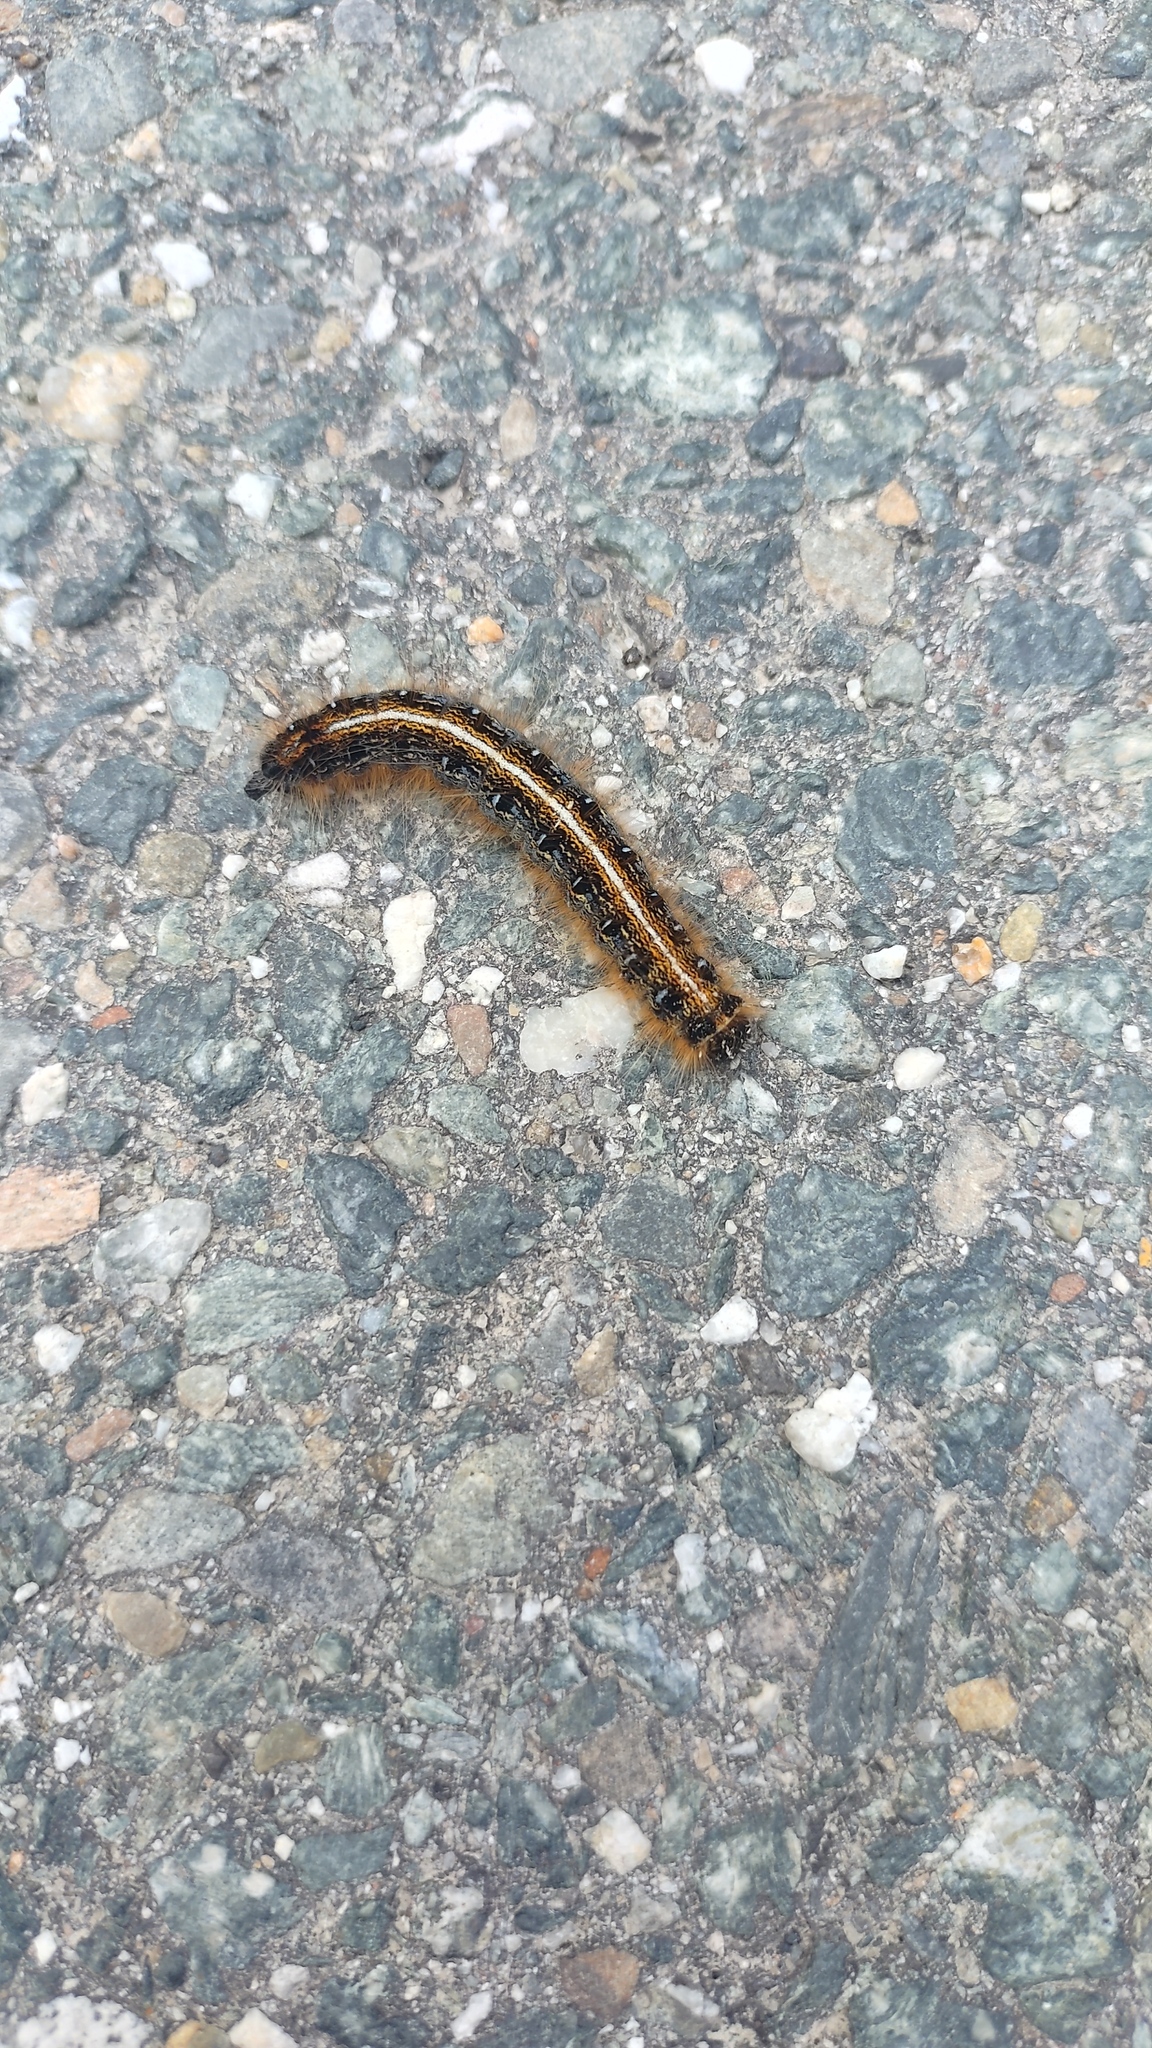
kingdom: Animalia
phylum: Arthropoda
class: Insecta
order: Lepidoptera
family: Lasiocampidae
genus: Malacosoma
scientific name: Malacosoma americana
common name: Eastern tent caterpillar moth
